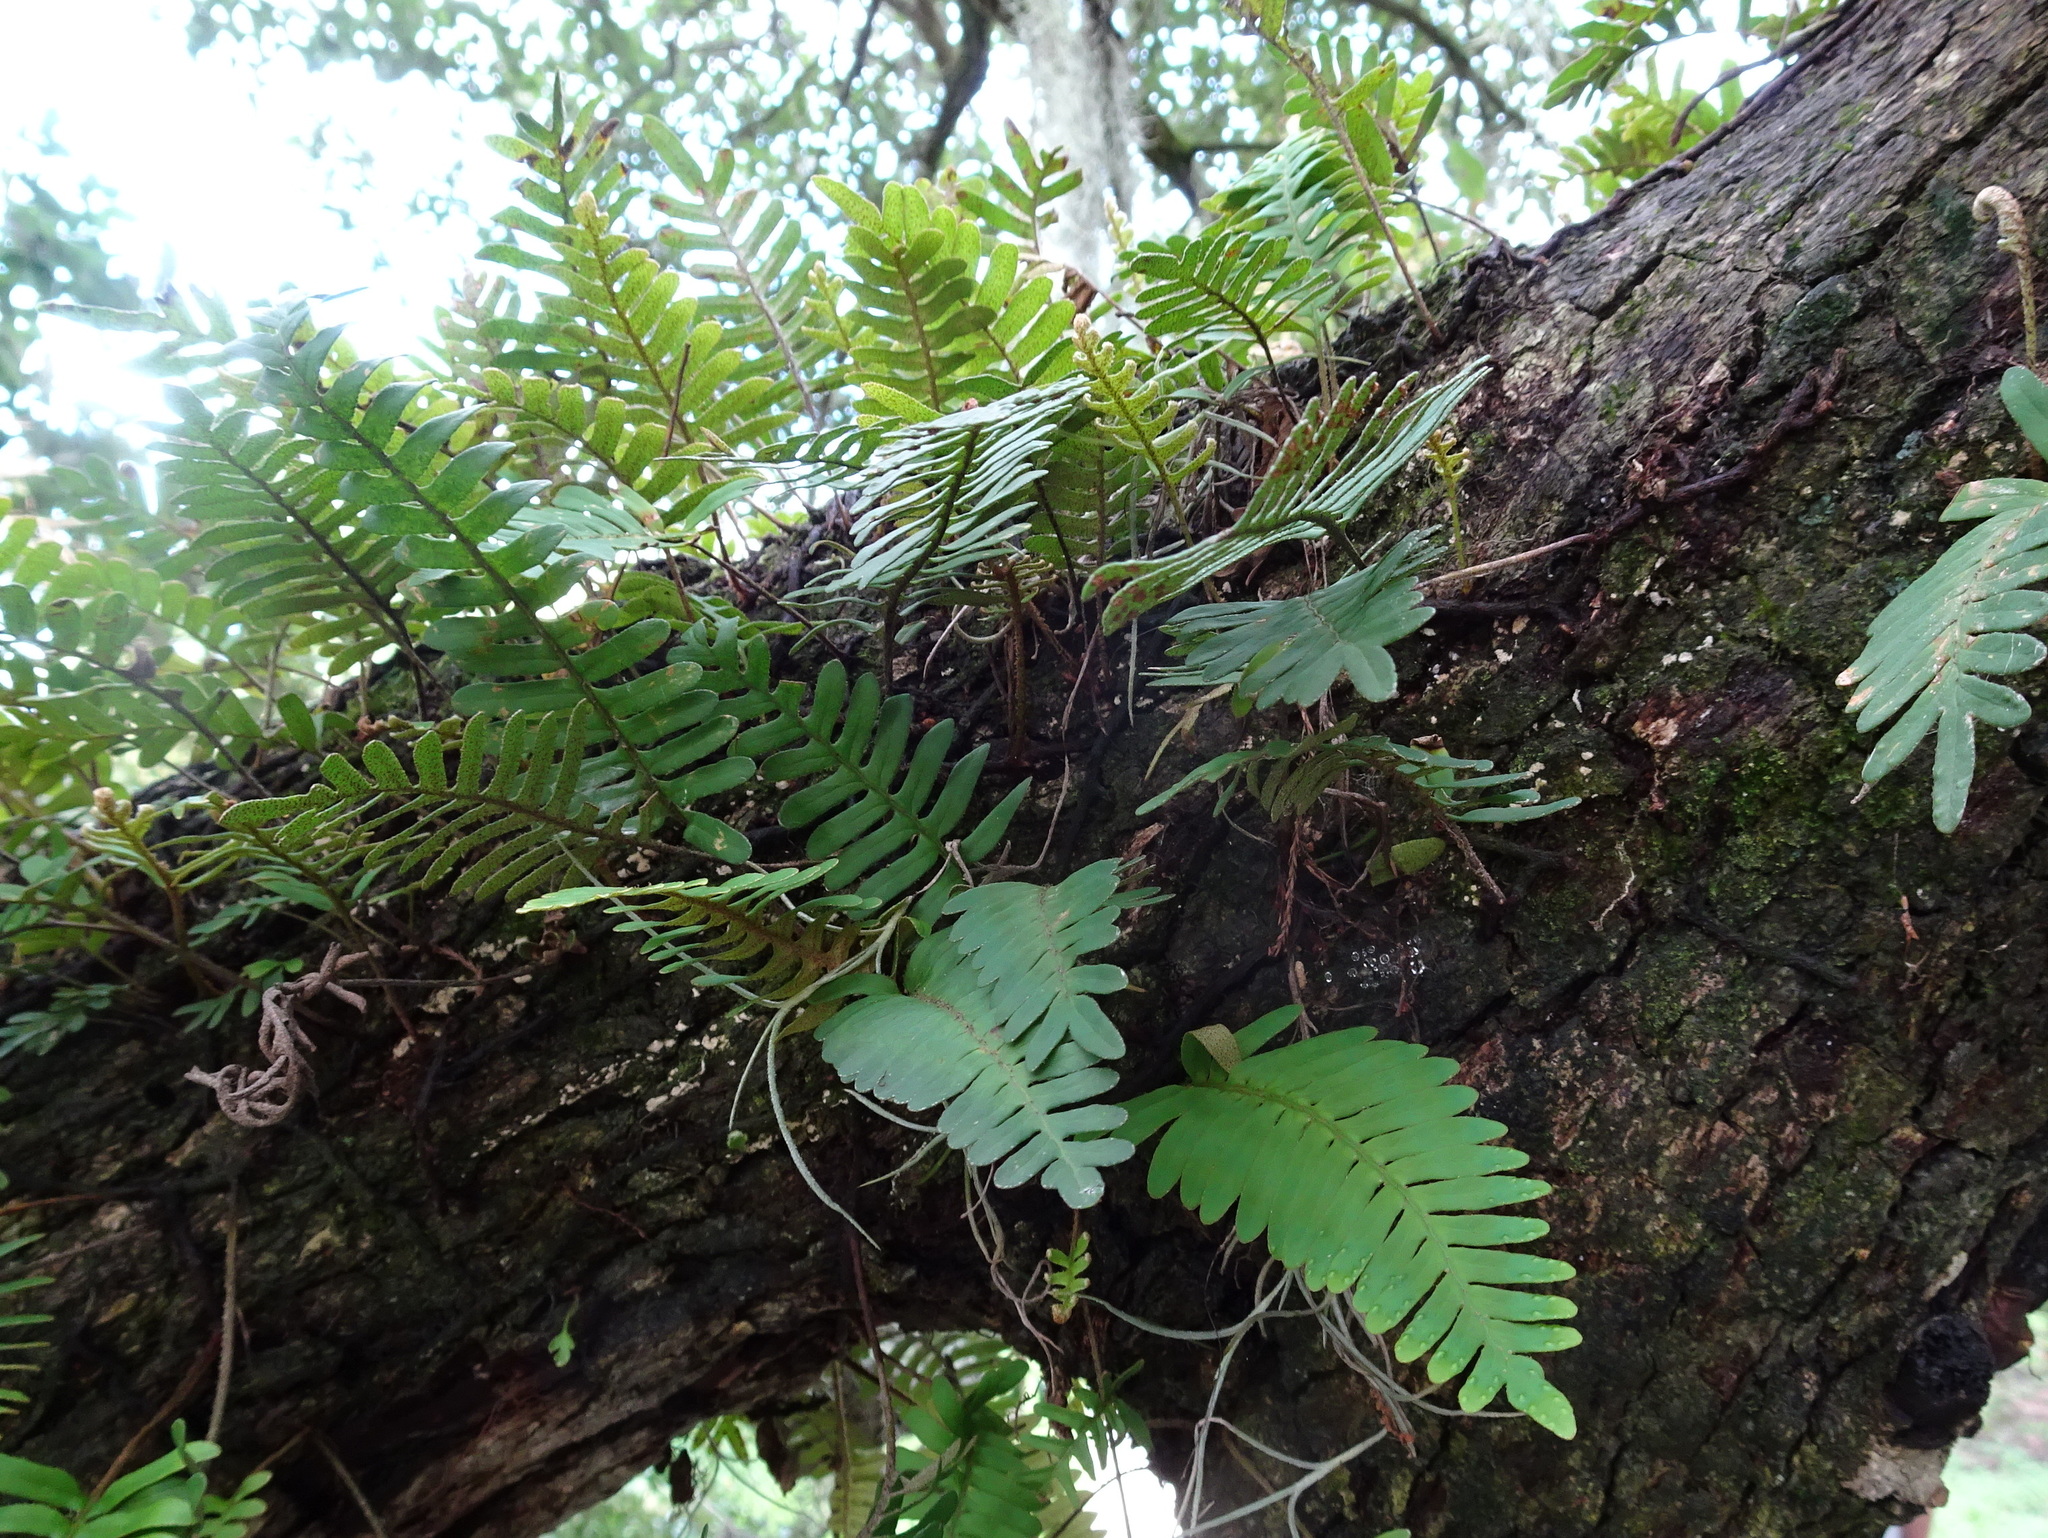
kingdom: Plantae
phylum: Tracheophyta
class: Polypodiopsida
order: Polypodiales
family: Polypodiaceae
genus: Pleopeltis
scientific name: Pleopeltis michauxiana
